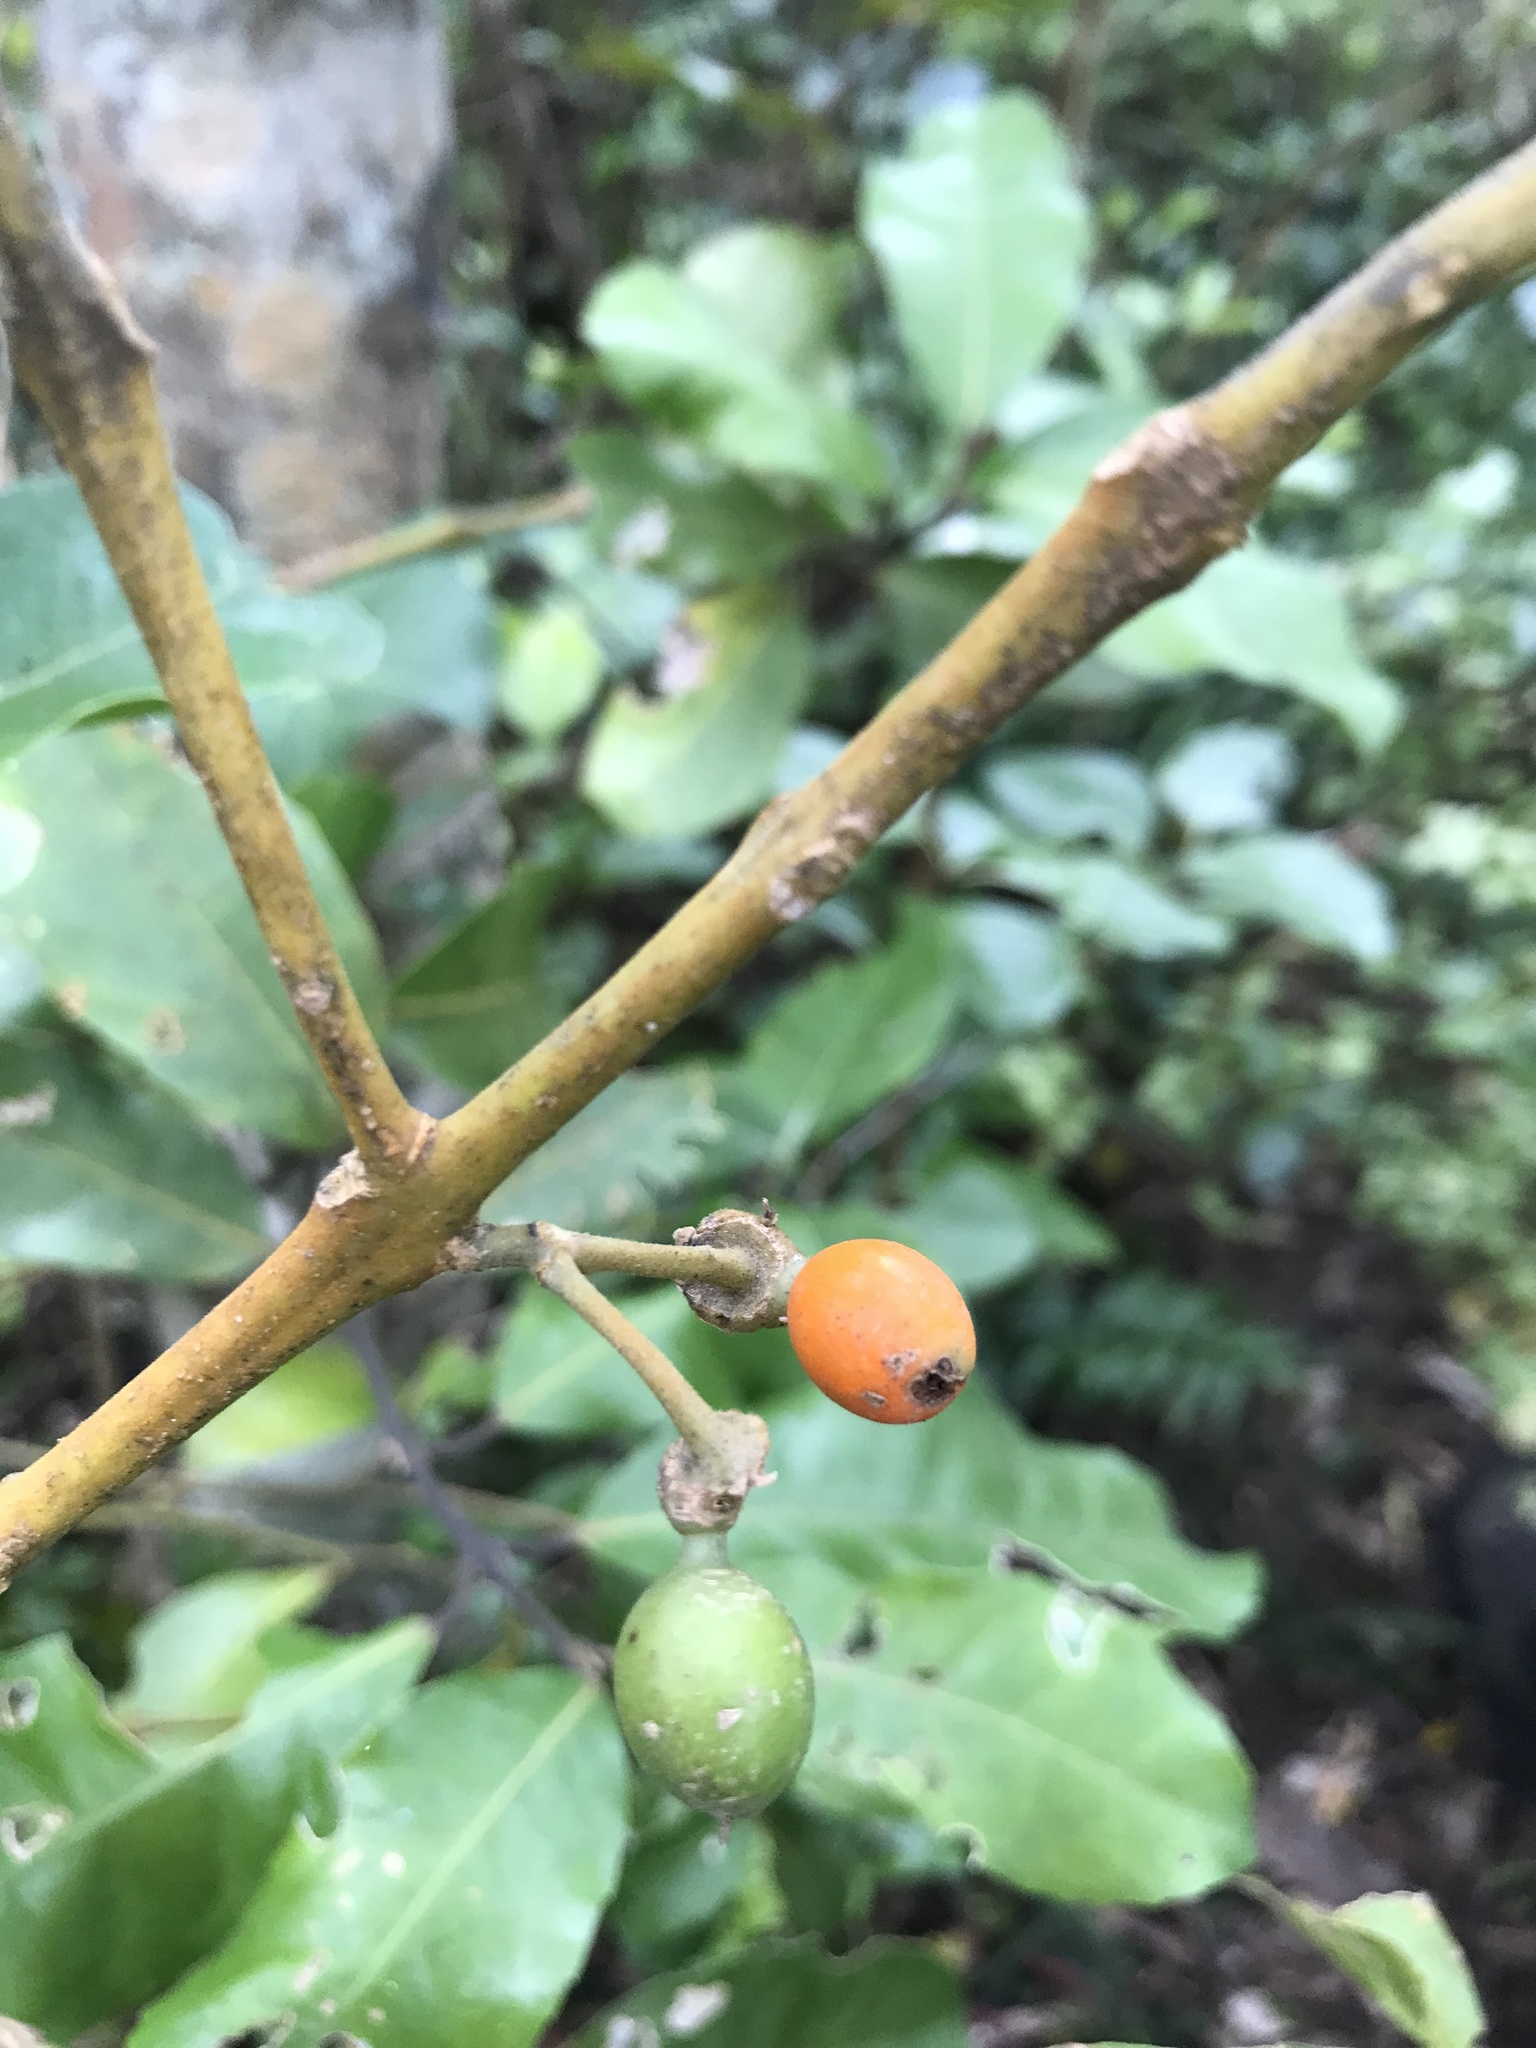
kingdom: Plantae
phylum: Tracheophyta
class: Magnoliopsida
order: Laurales
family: Monimiaceae
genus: Hedycarya
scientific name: Hedycarya arborea
